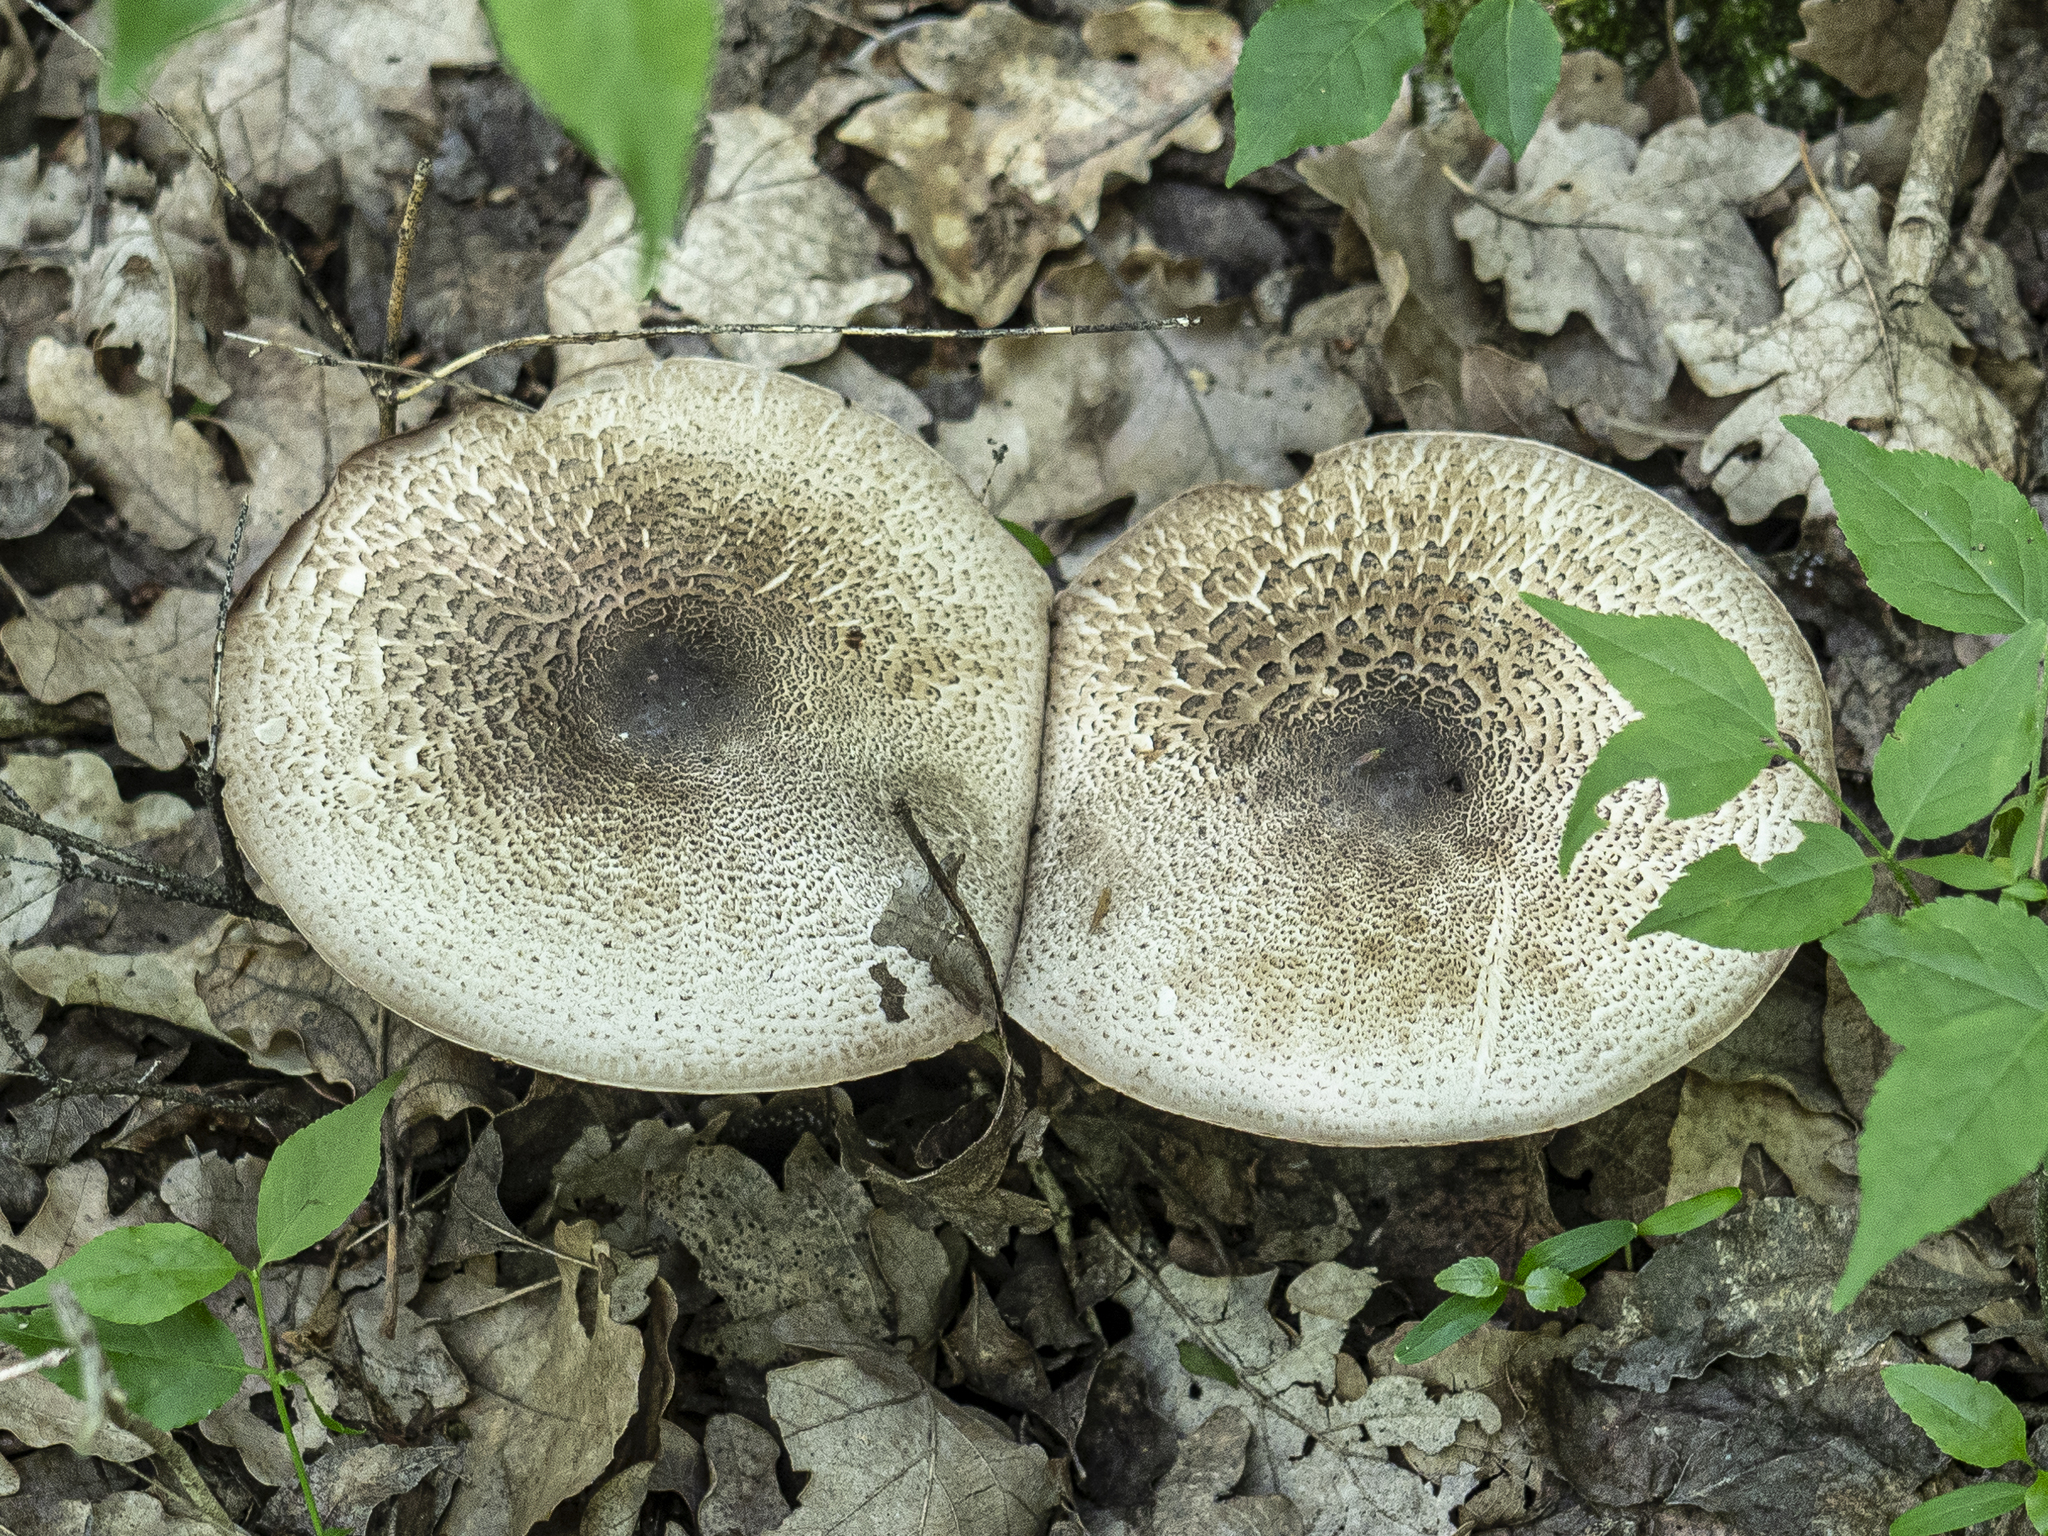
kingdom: Fungi
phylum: Basidiomycota
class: Agaricomycetes
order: Agaricales
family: Agaricaceae
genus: Agaricus
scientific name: Agaricus moelleri
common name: Inky mushroom
